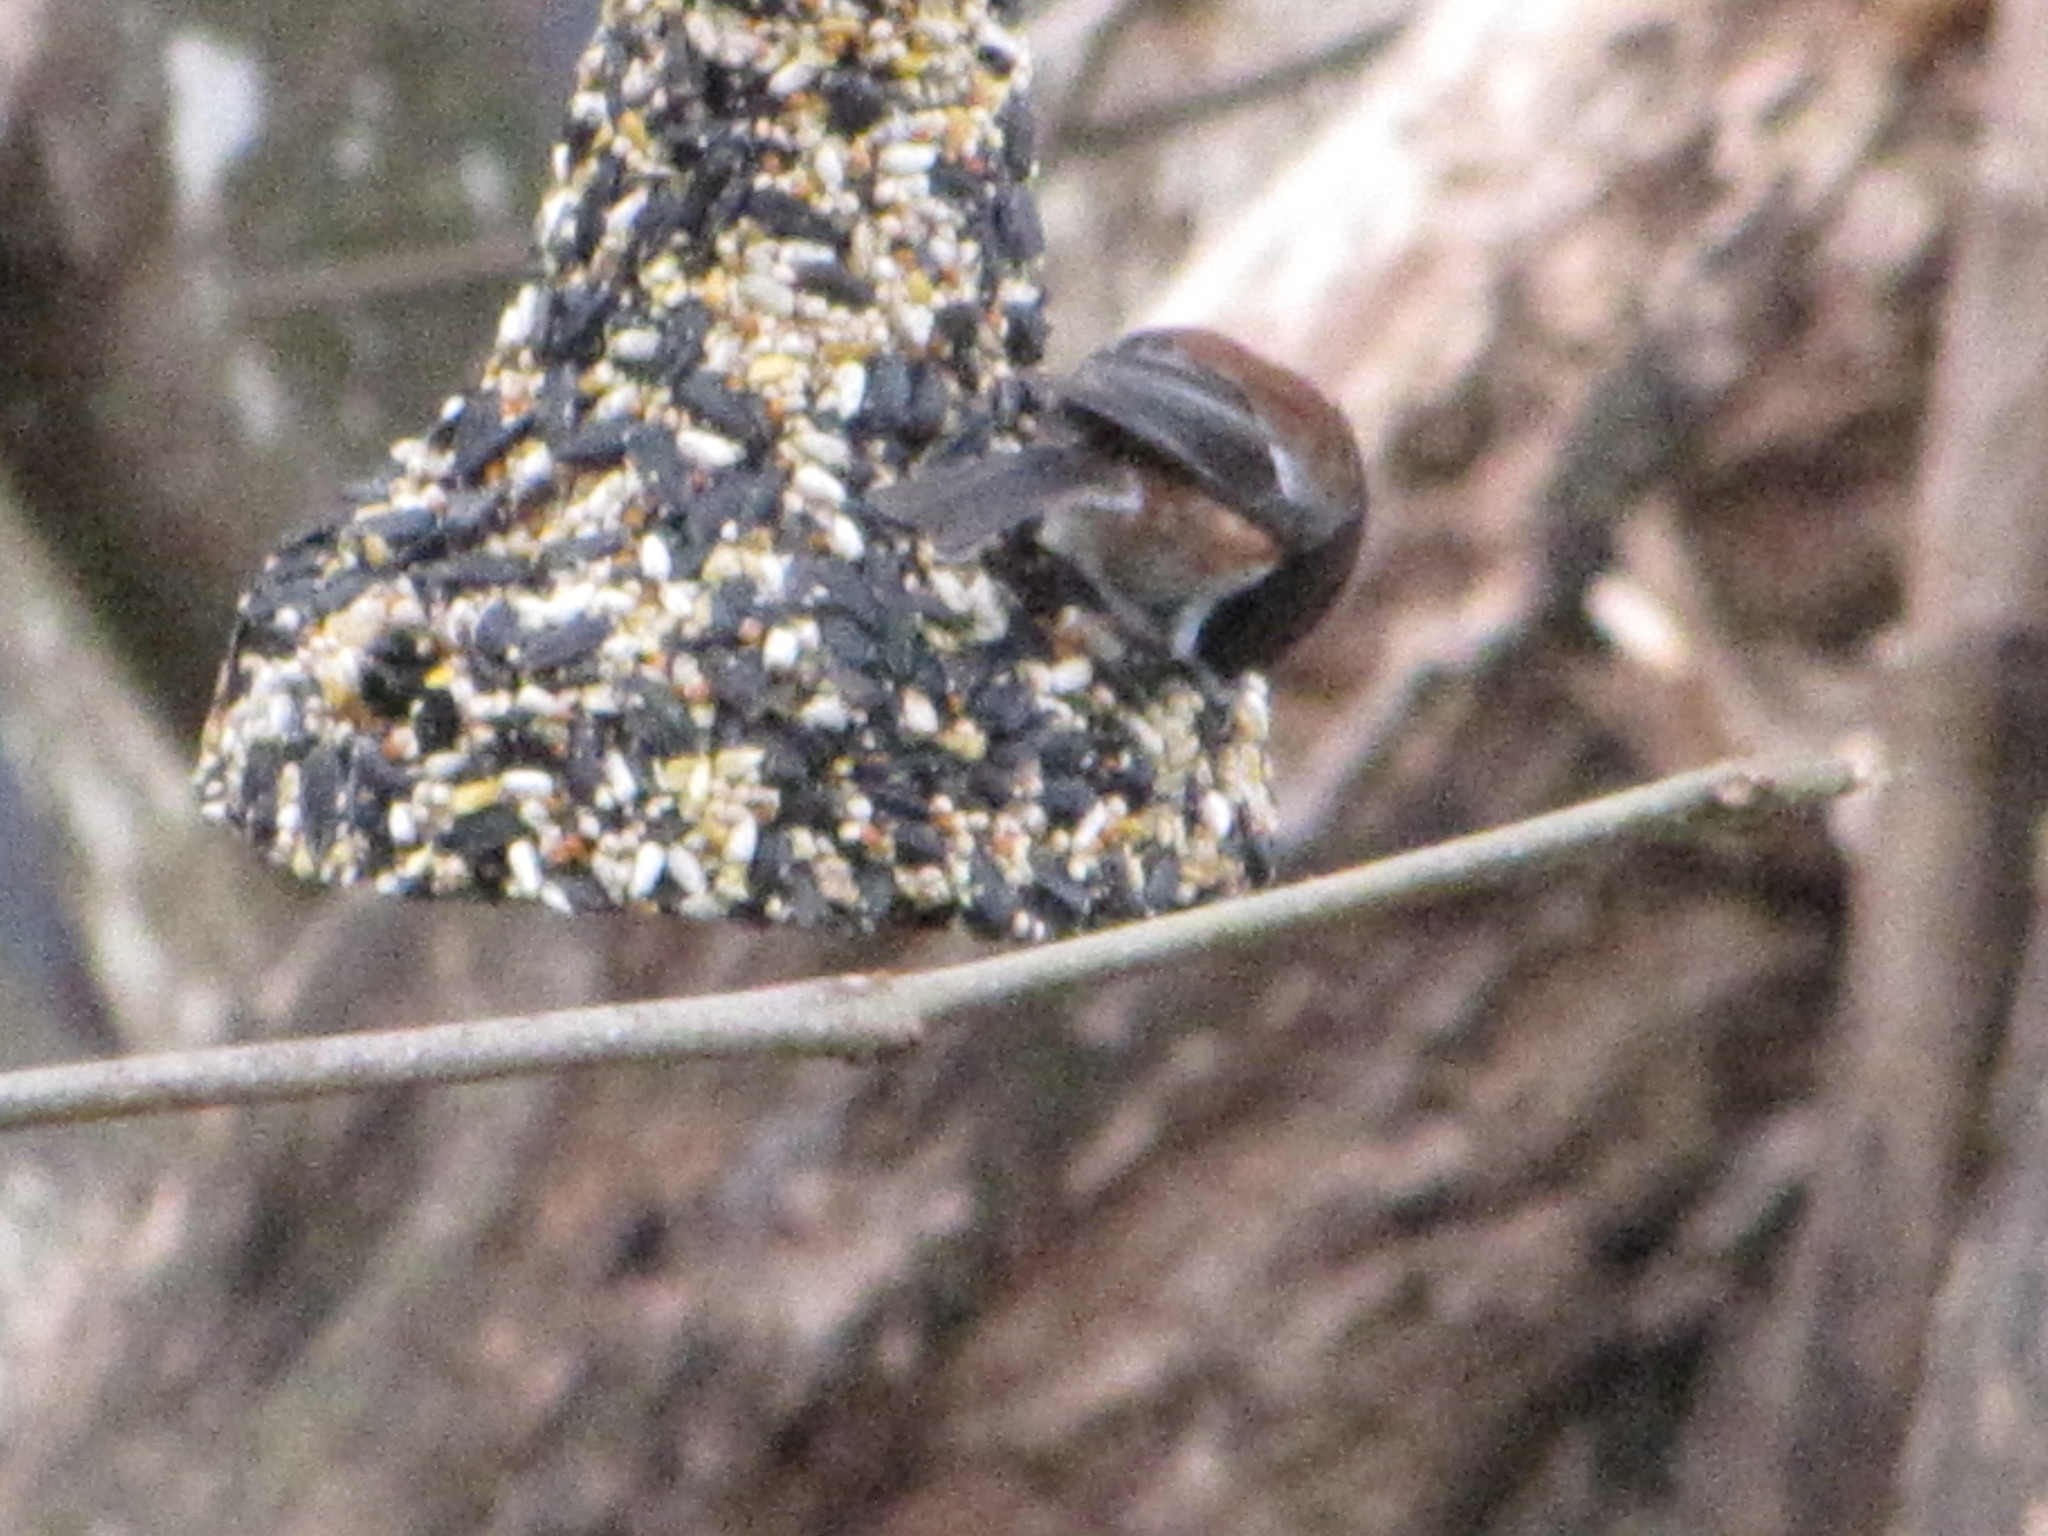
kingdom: Animalia
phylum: Chordata
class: Aves
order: Passeriformes
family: Paridae
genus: Poecile
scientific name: Poecile rufescens
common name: Chestnut-backed chickadee
